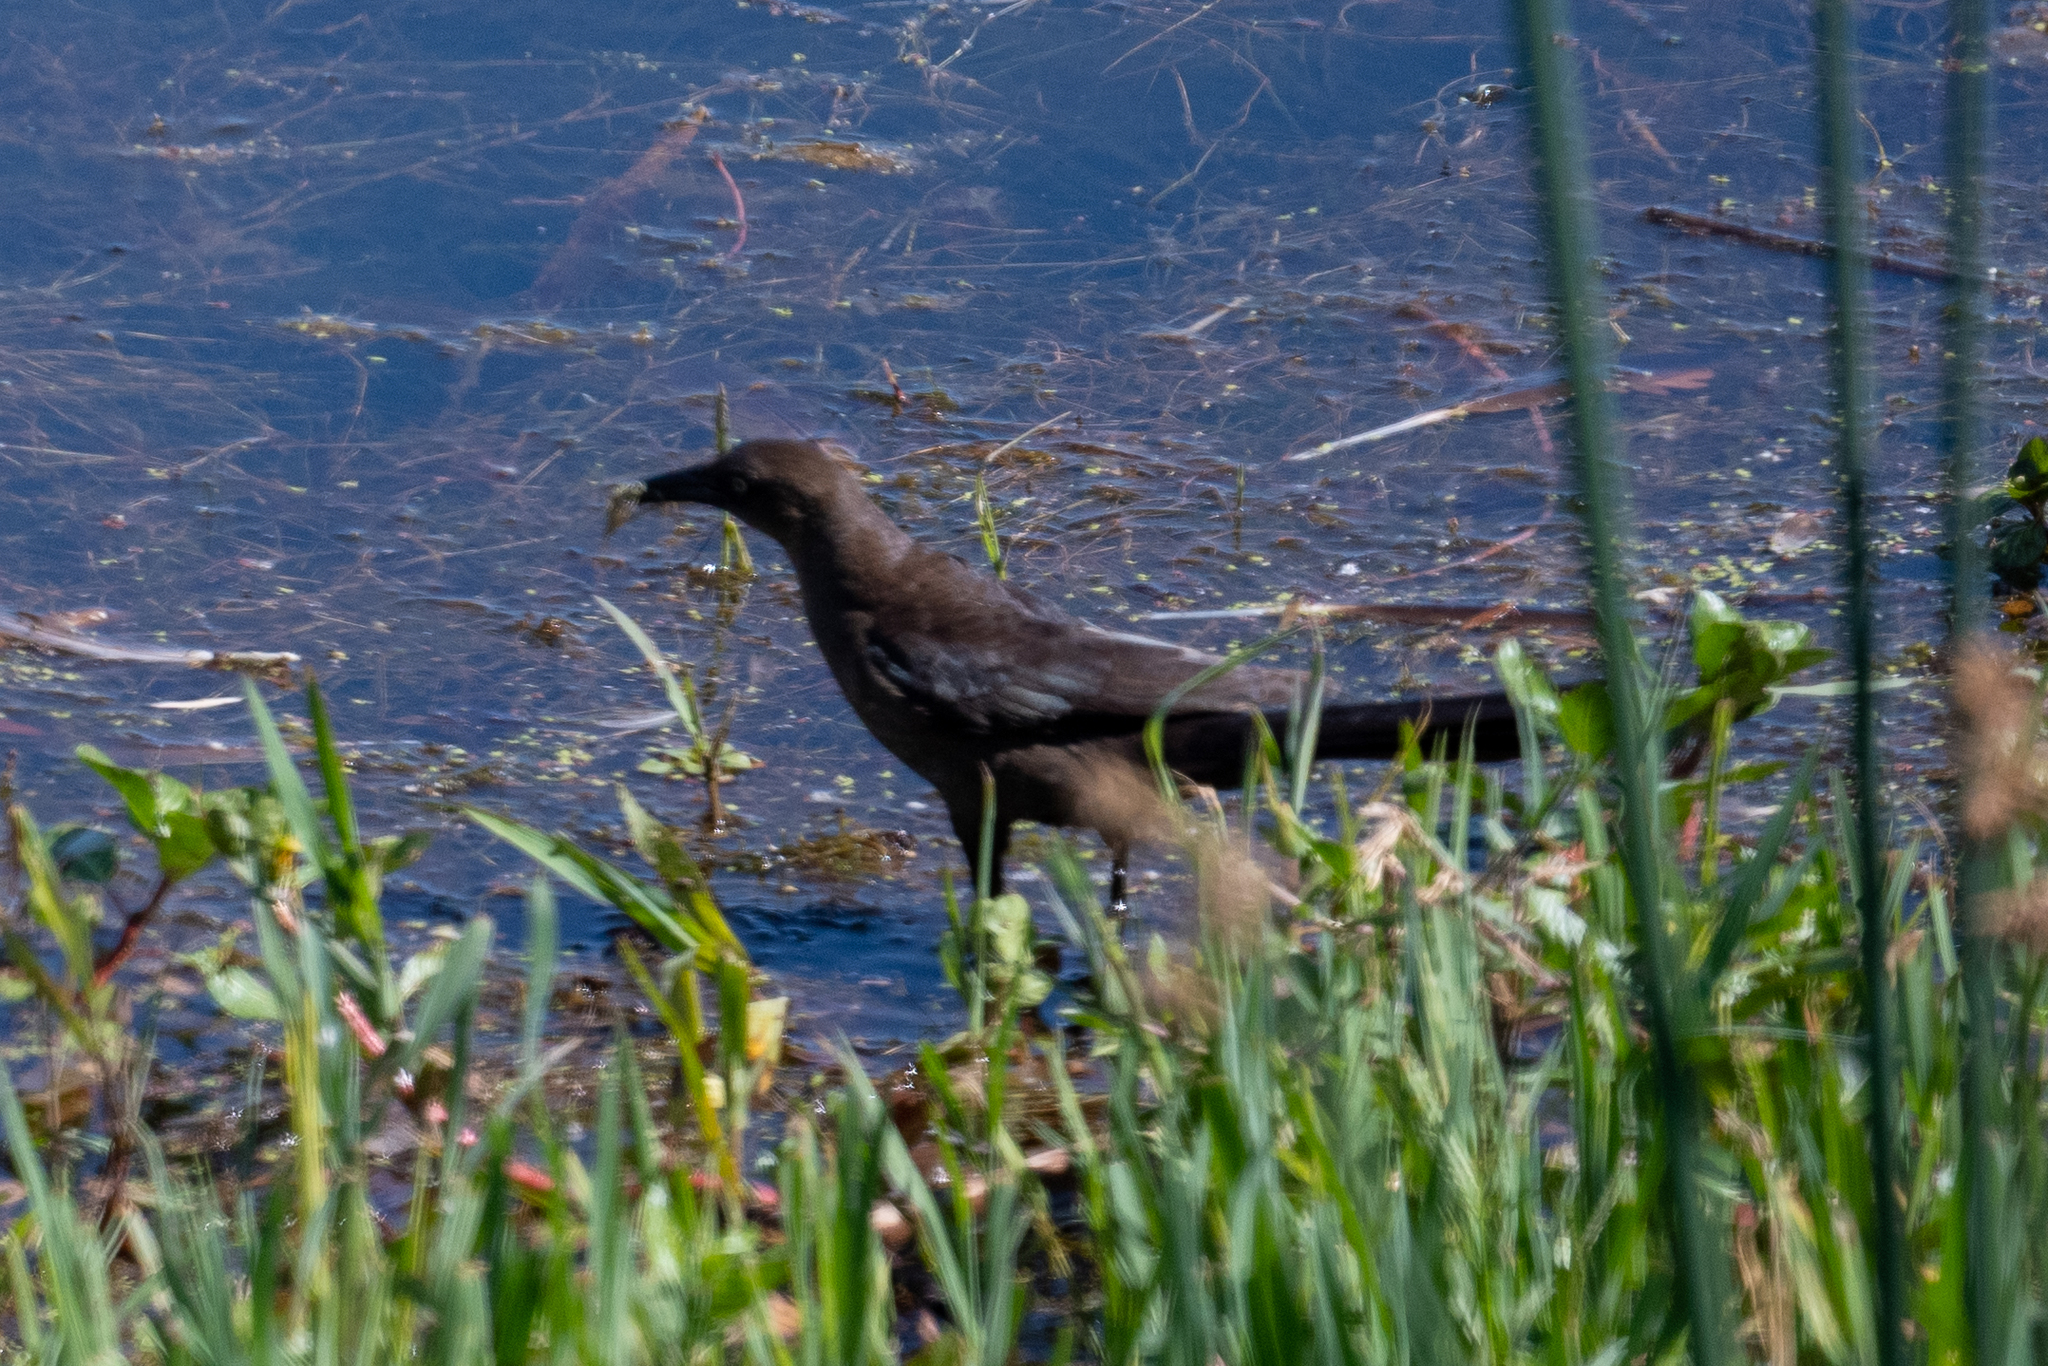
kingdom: Animalia
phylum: Chordata
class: Aves
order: Passeriformes
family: Icteridae
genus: Quiscalus
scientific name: Quiscalus mexicanus
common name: Great-tailed grackle
